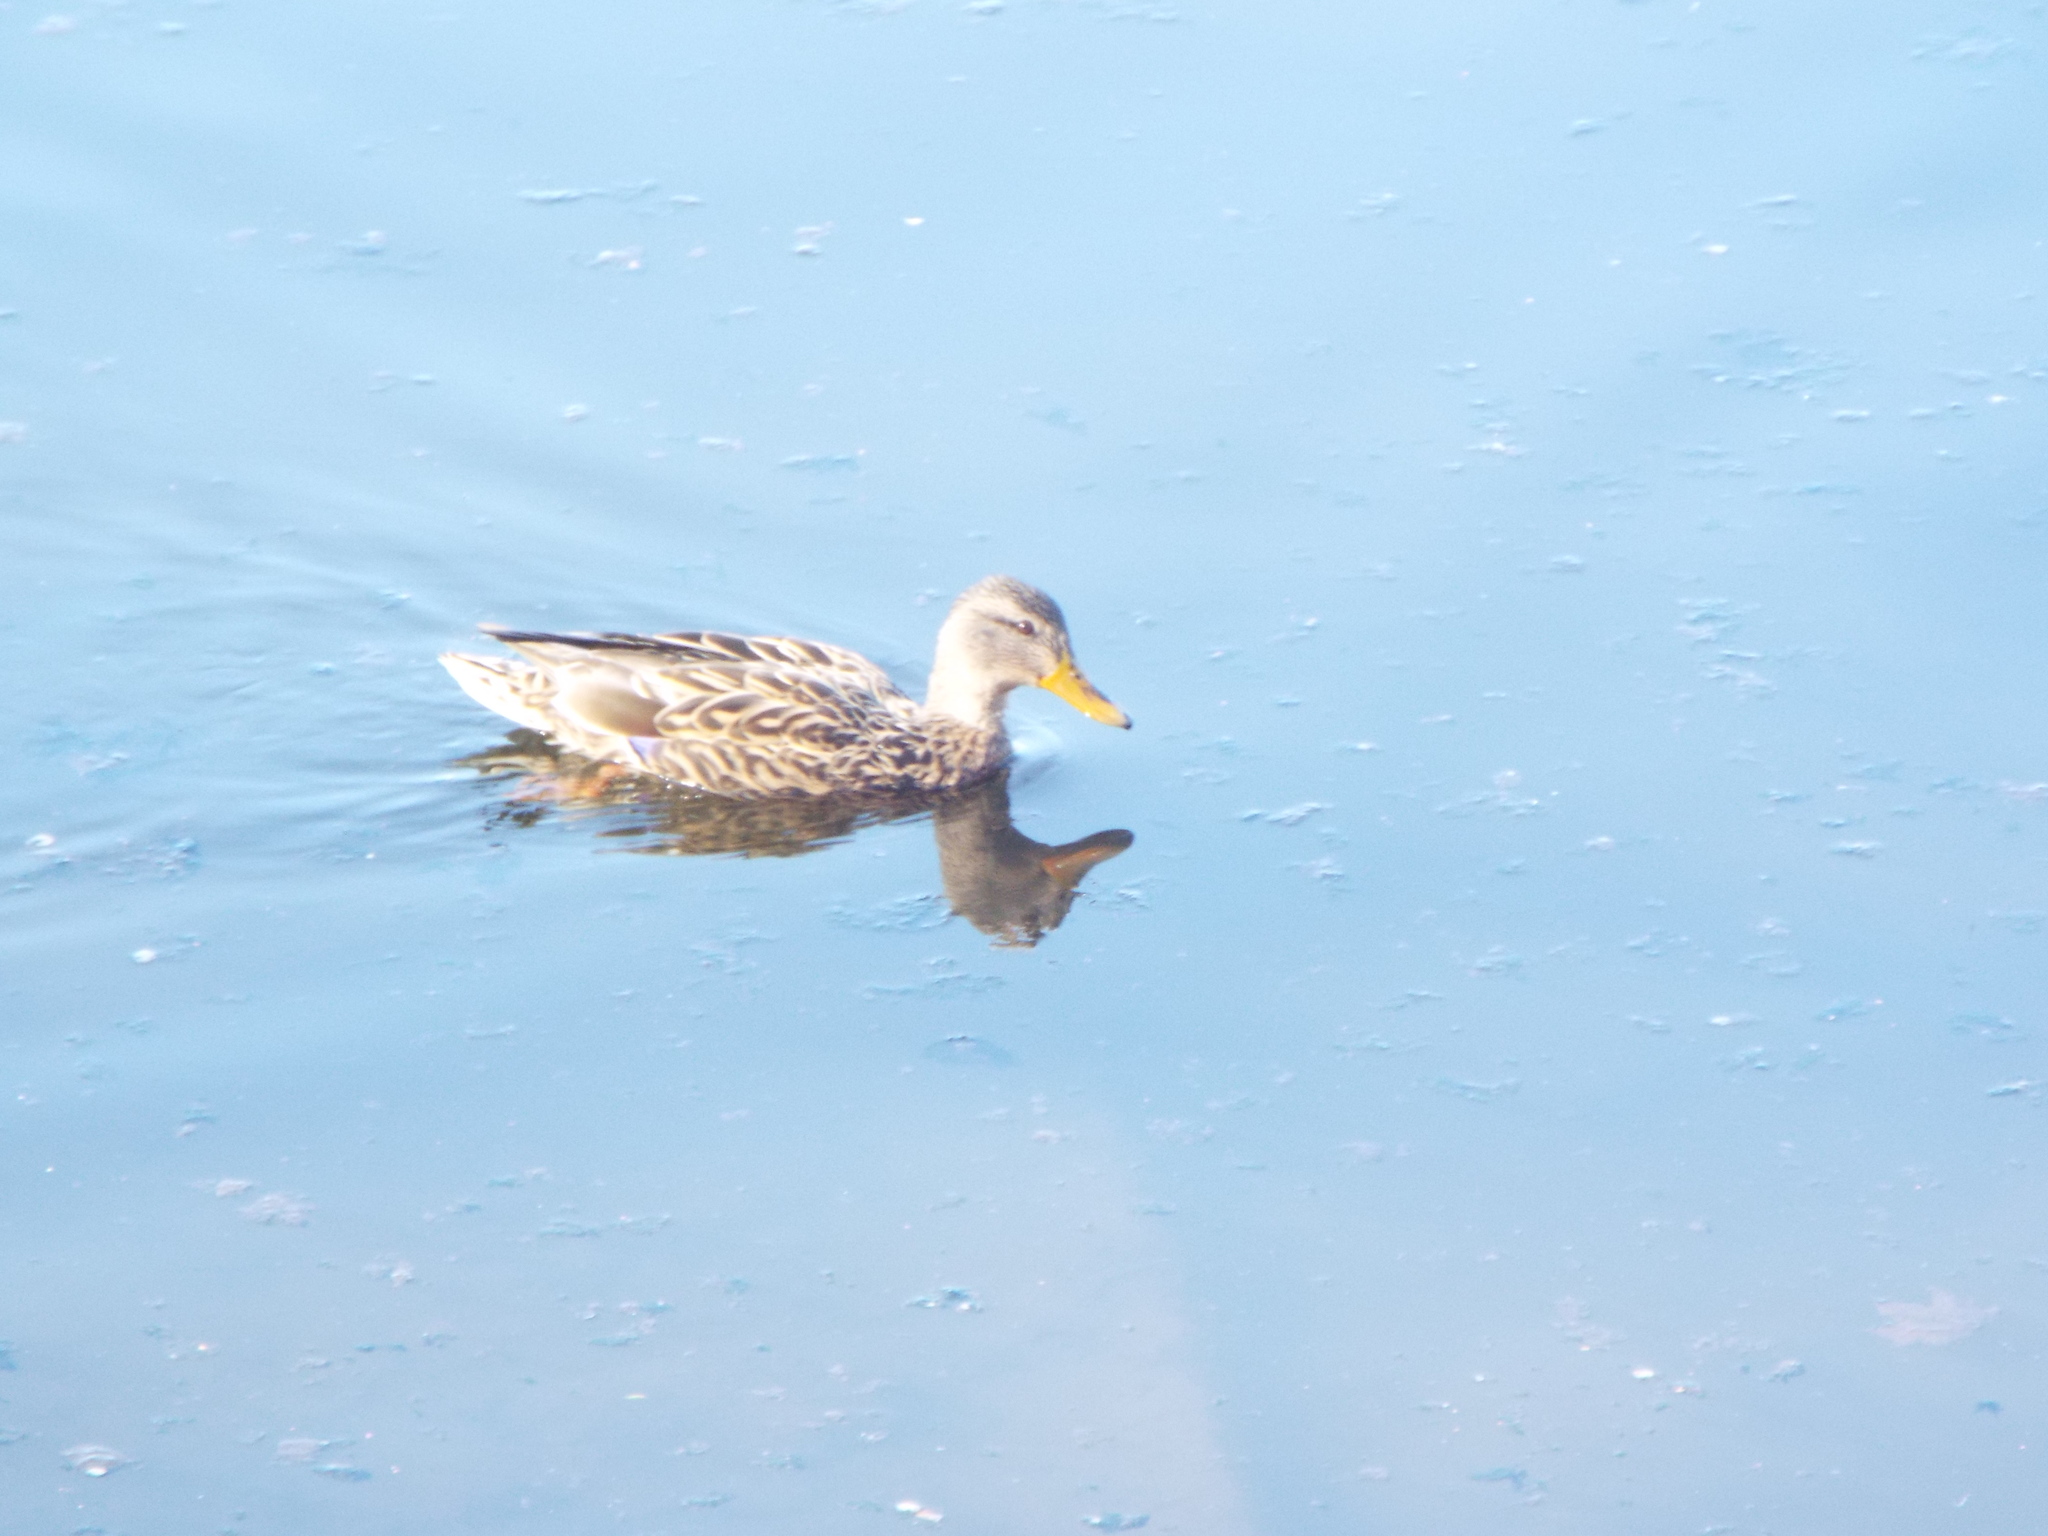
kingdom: Animalia
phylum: Chordata
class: Aves
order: Anseriformes
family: Anatidae
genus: Anas
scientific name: Anas platyrhynchos
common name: Mallard
